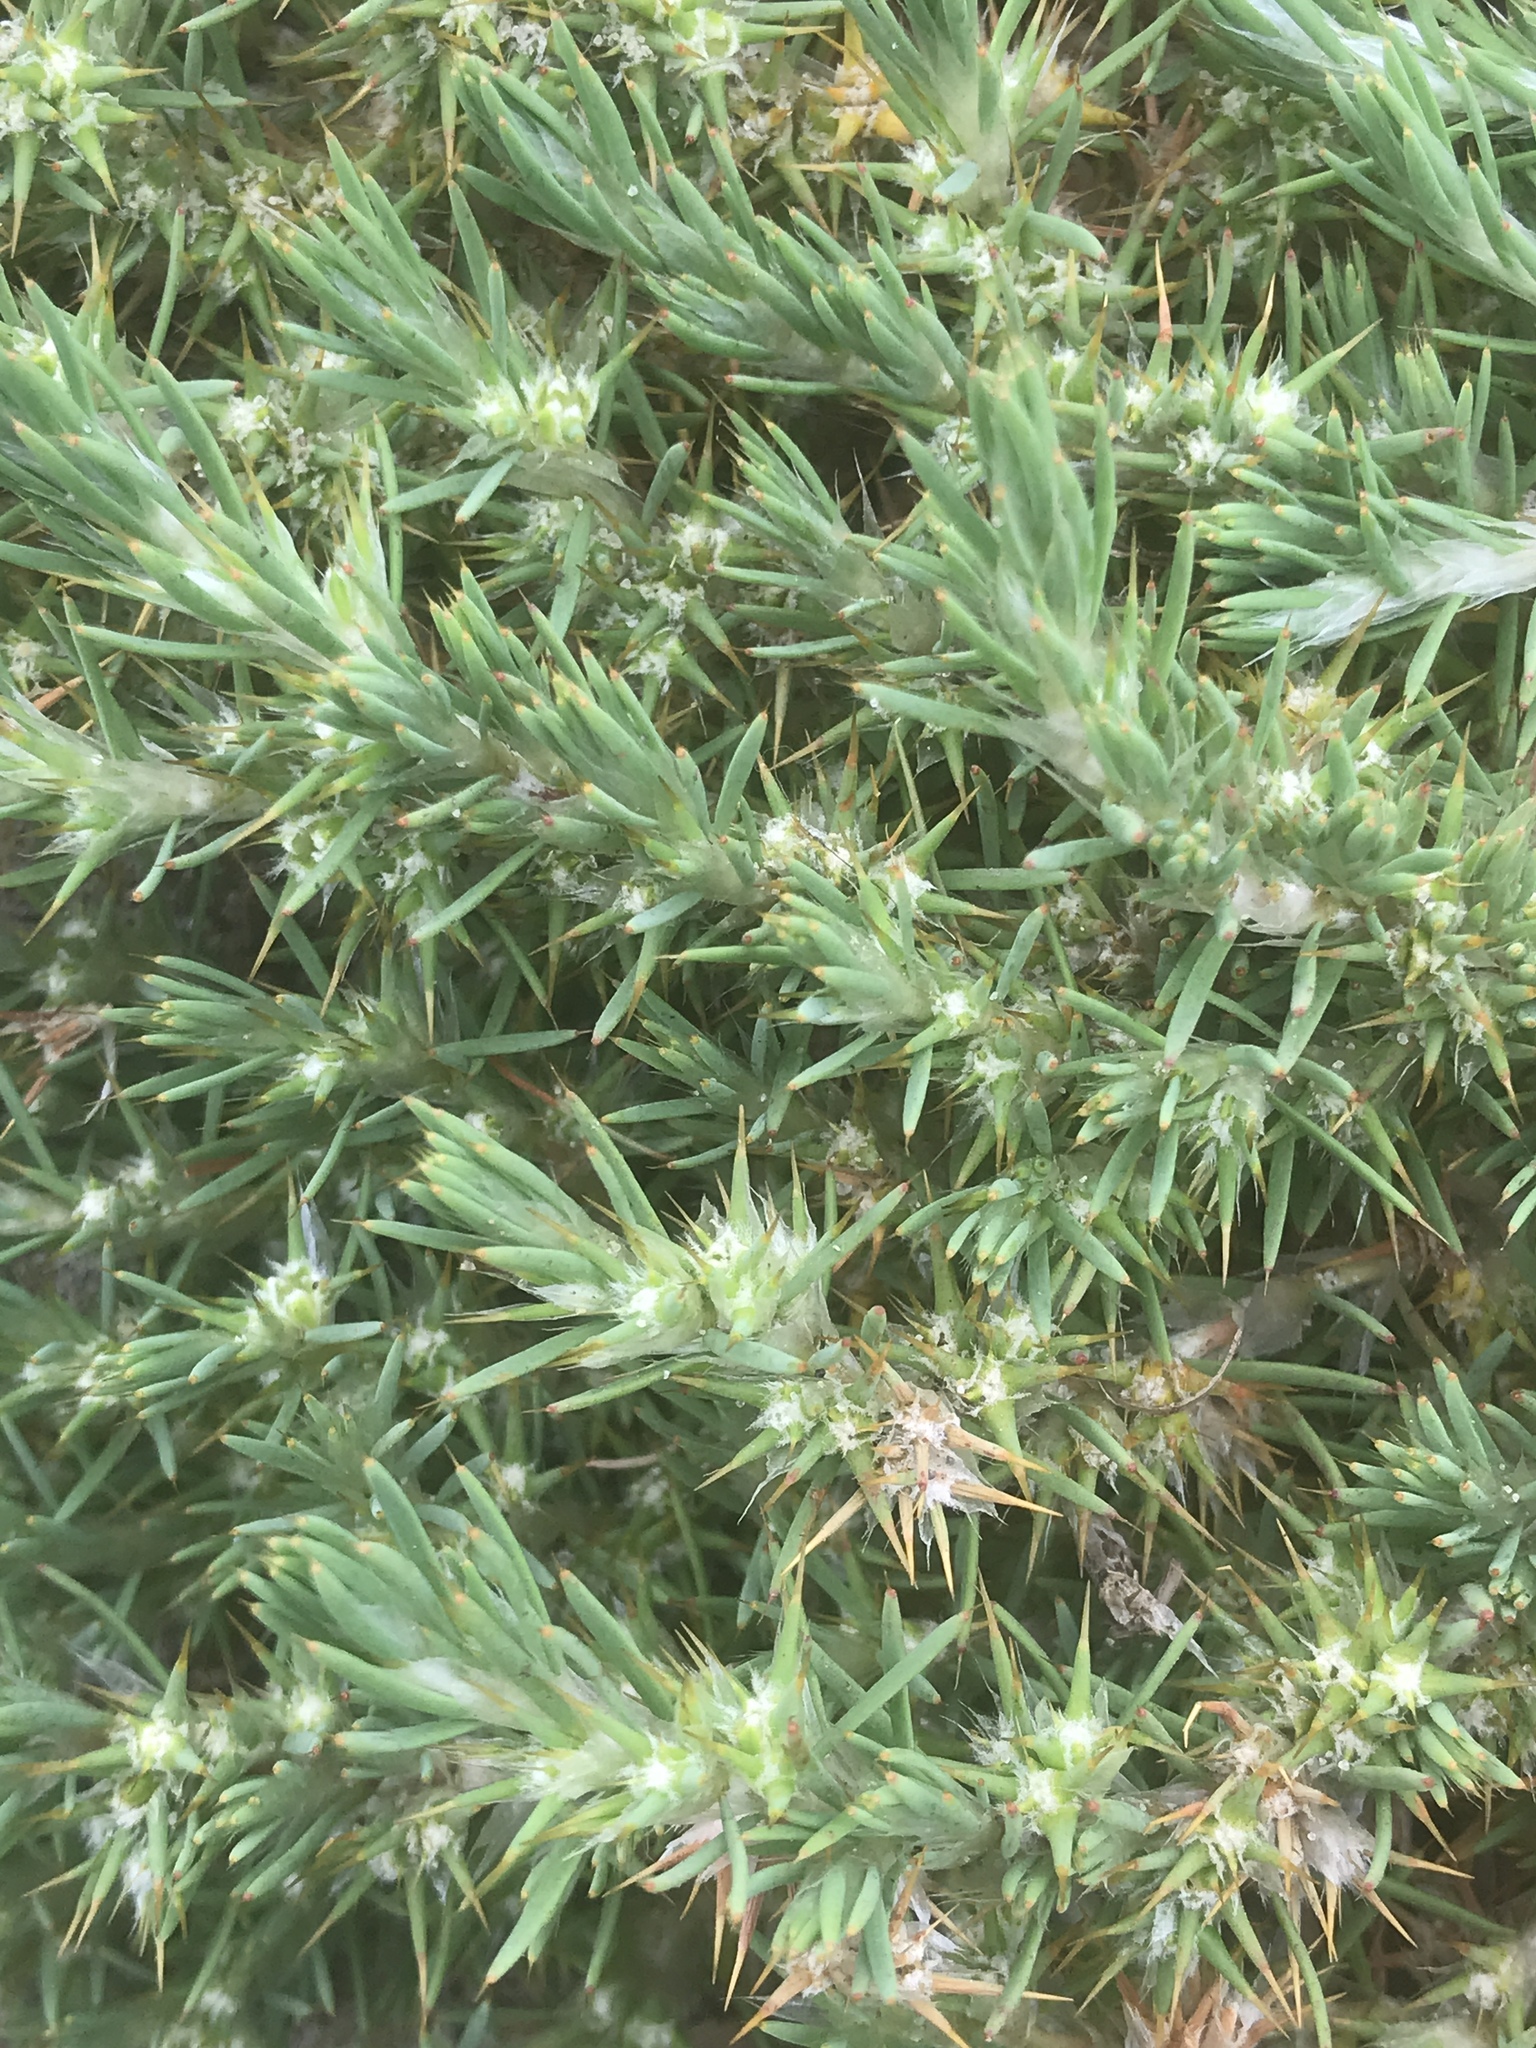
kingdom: Plantae
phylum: Tracheophyta
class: Magnoliopsida
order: Caryophyllales
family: Caryophyllaceae
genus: Cardionema
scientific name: Cardionema ramosissima
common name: Sandcarpet
